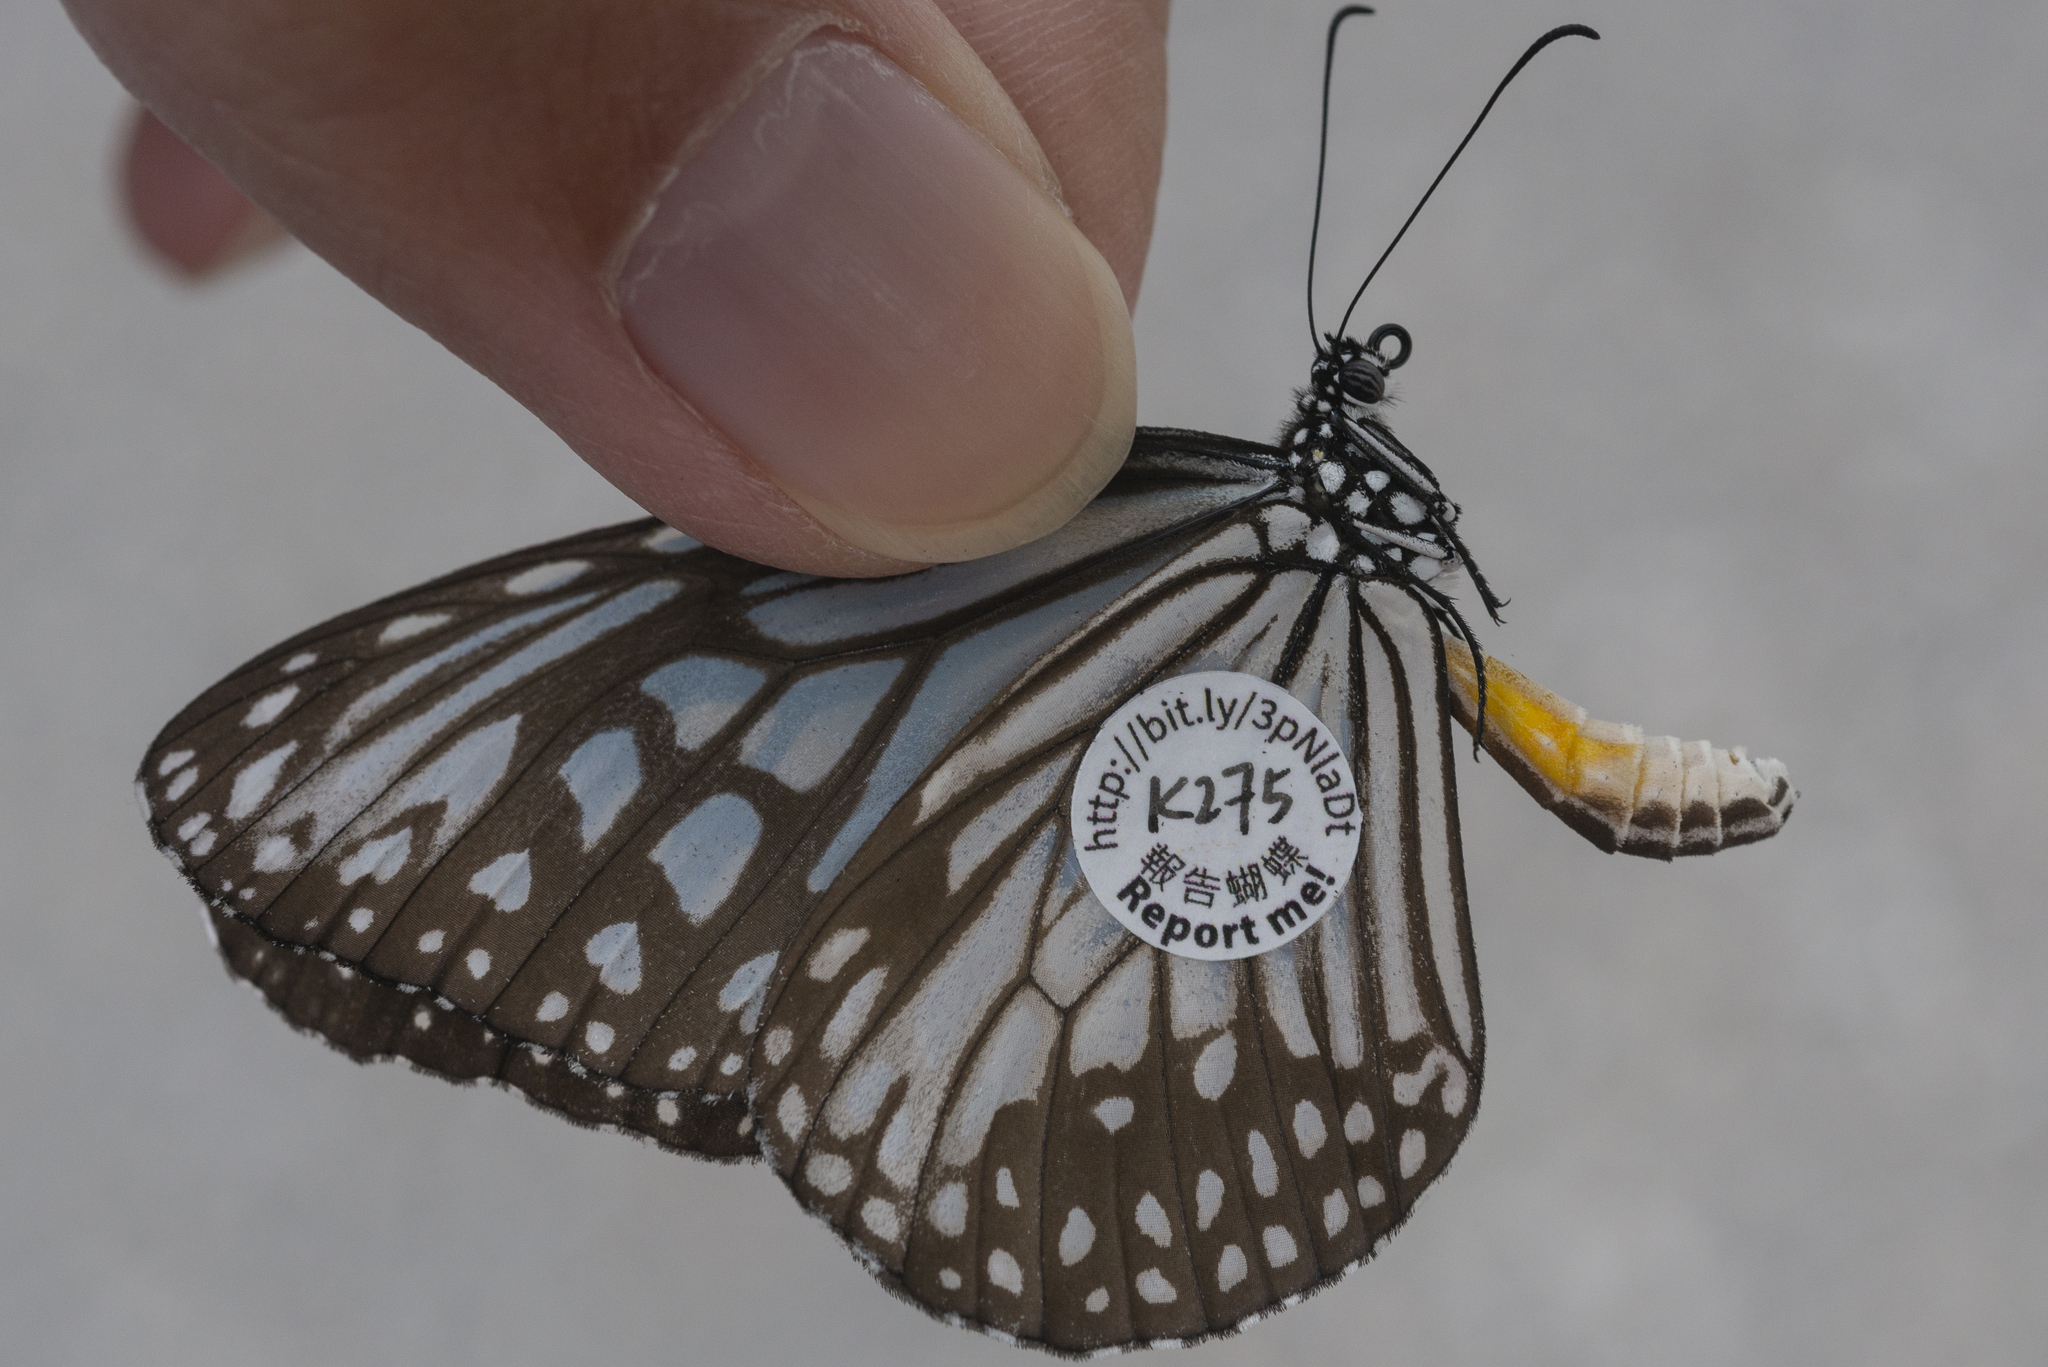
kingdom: Animalia
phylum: Arthropoda
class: Insecta
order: Lepidoptera
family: Nymphalidae
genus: Parantica
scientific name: Parantica aglea
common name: Glassy tiger
